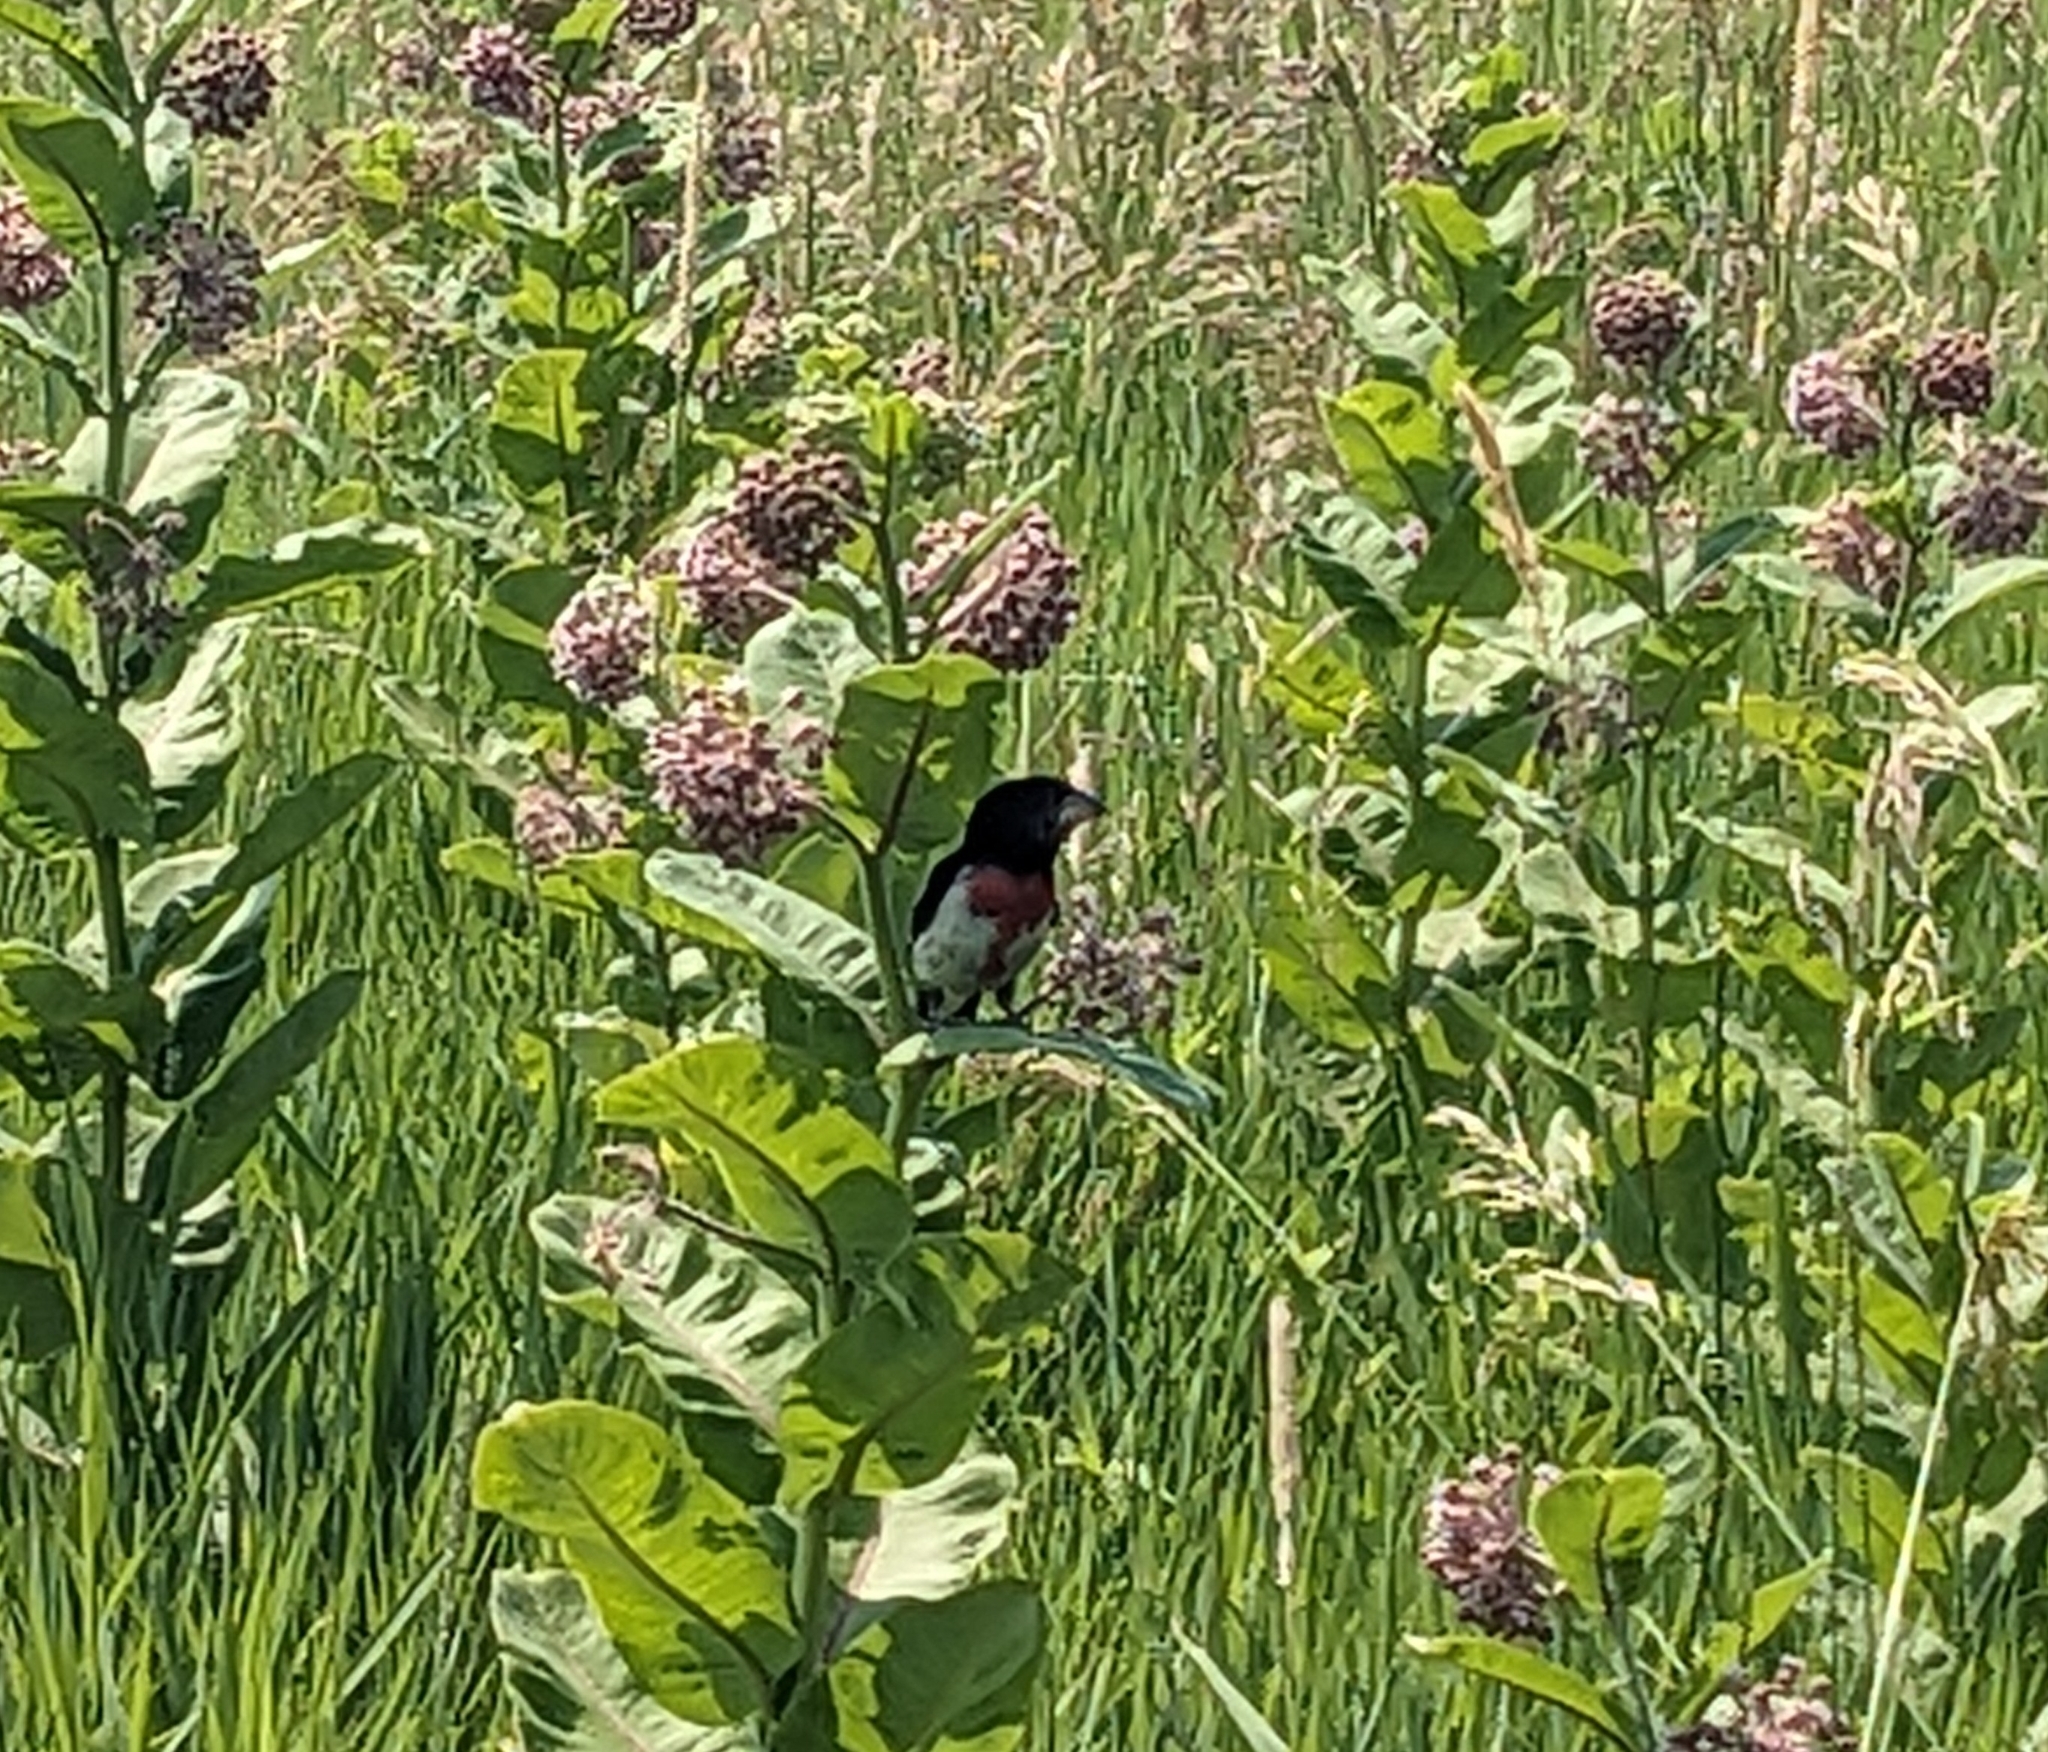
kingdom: Animalia
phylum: Chordata
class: Aves
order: Passeriformes
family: Cardinalidae
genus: Pheucticus
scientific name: Pheucticus ludovicianus
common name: Rose-breasted grosbeak
